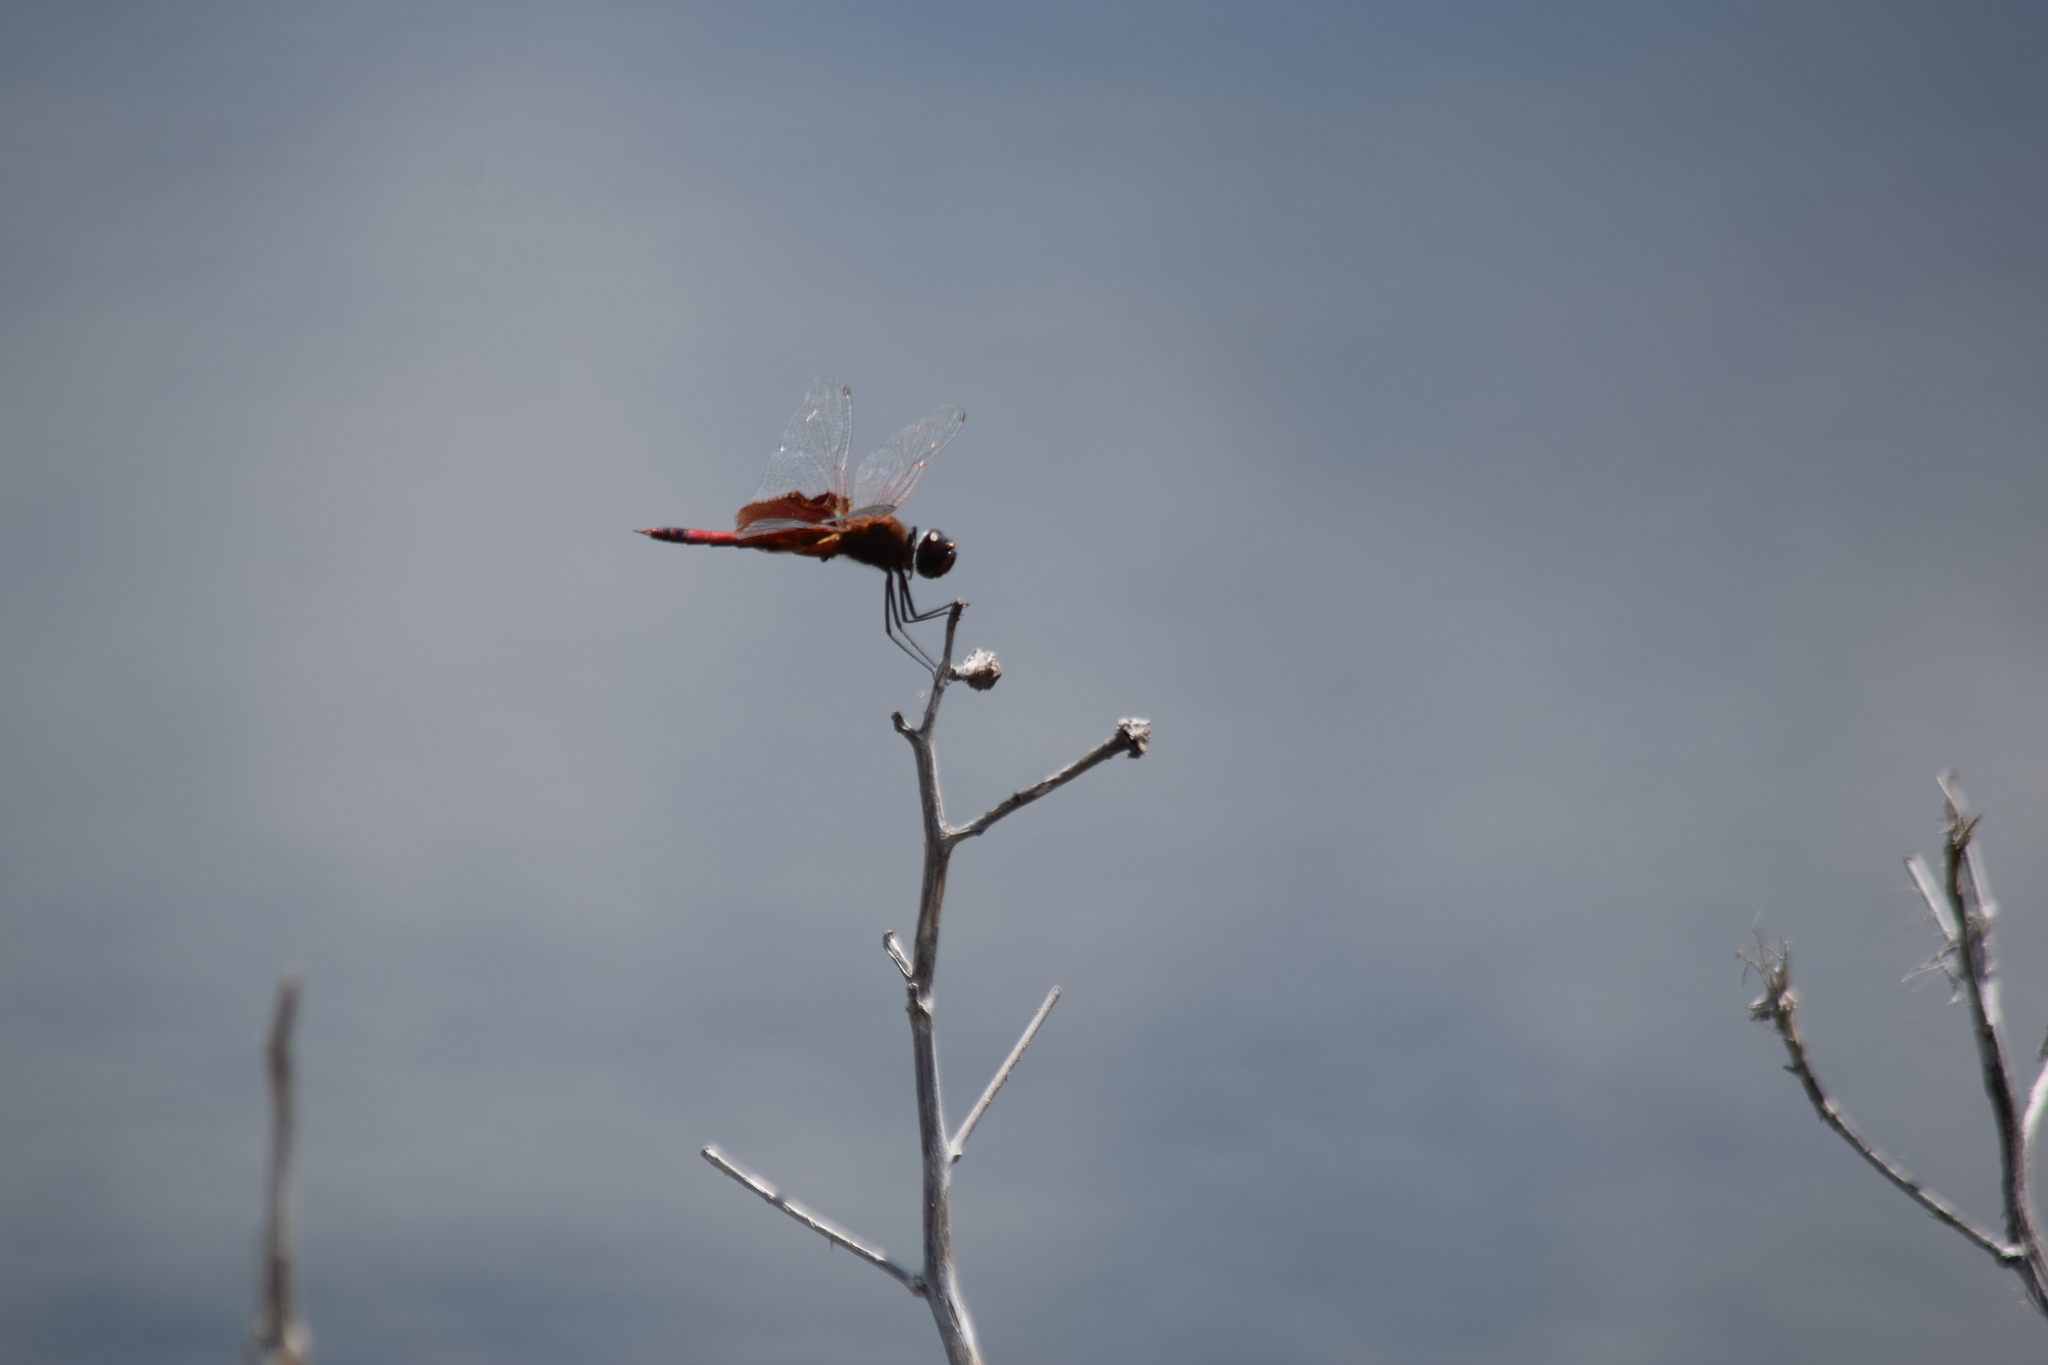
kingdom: Animalia
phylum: Arthropoda
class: Insecta
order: Odonata
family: Libellulidae
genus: Tramea
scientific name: Tramea carolina
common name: Carolina saddlebags
